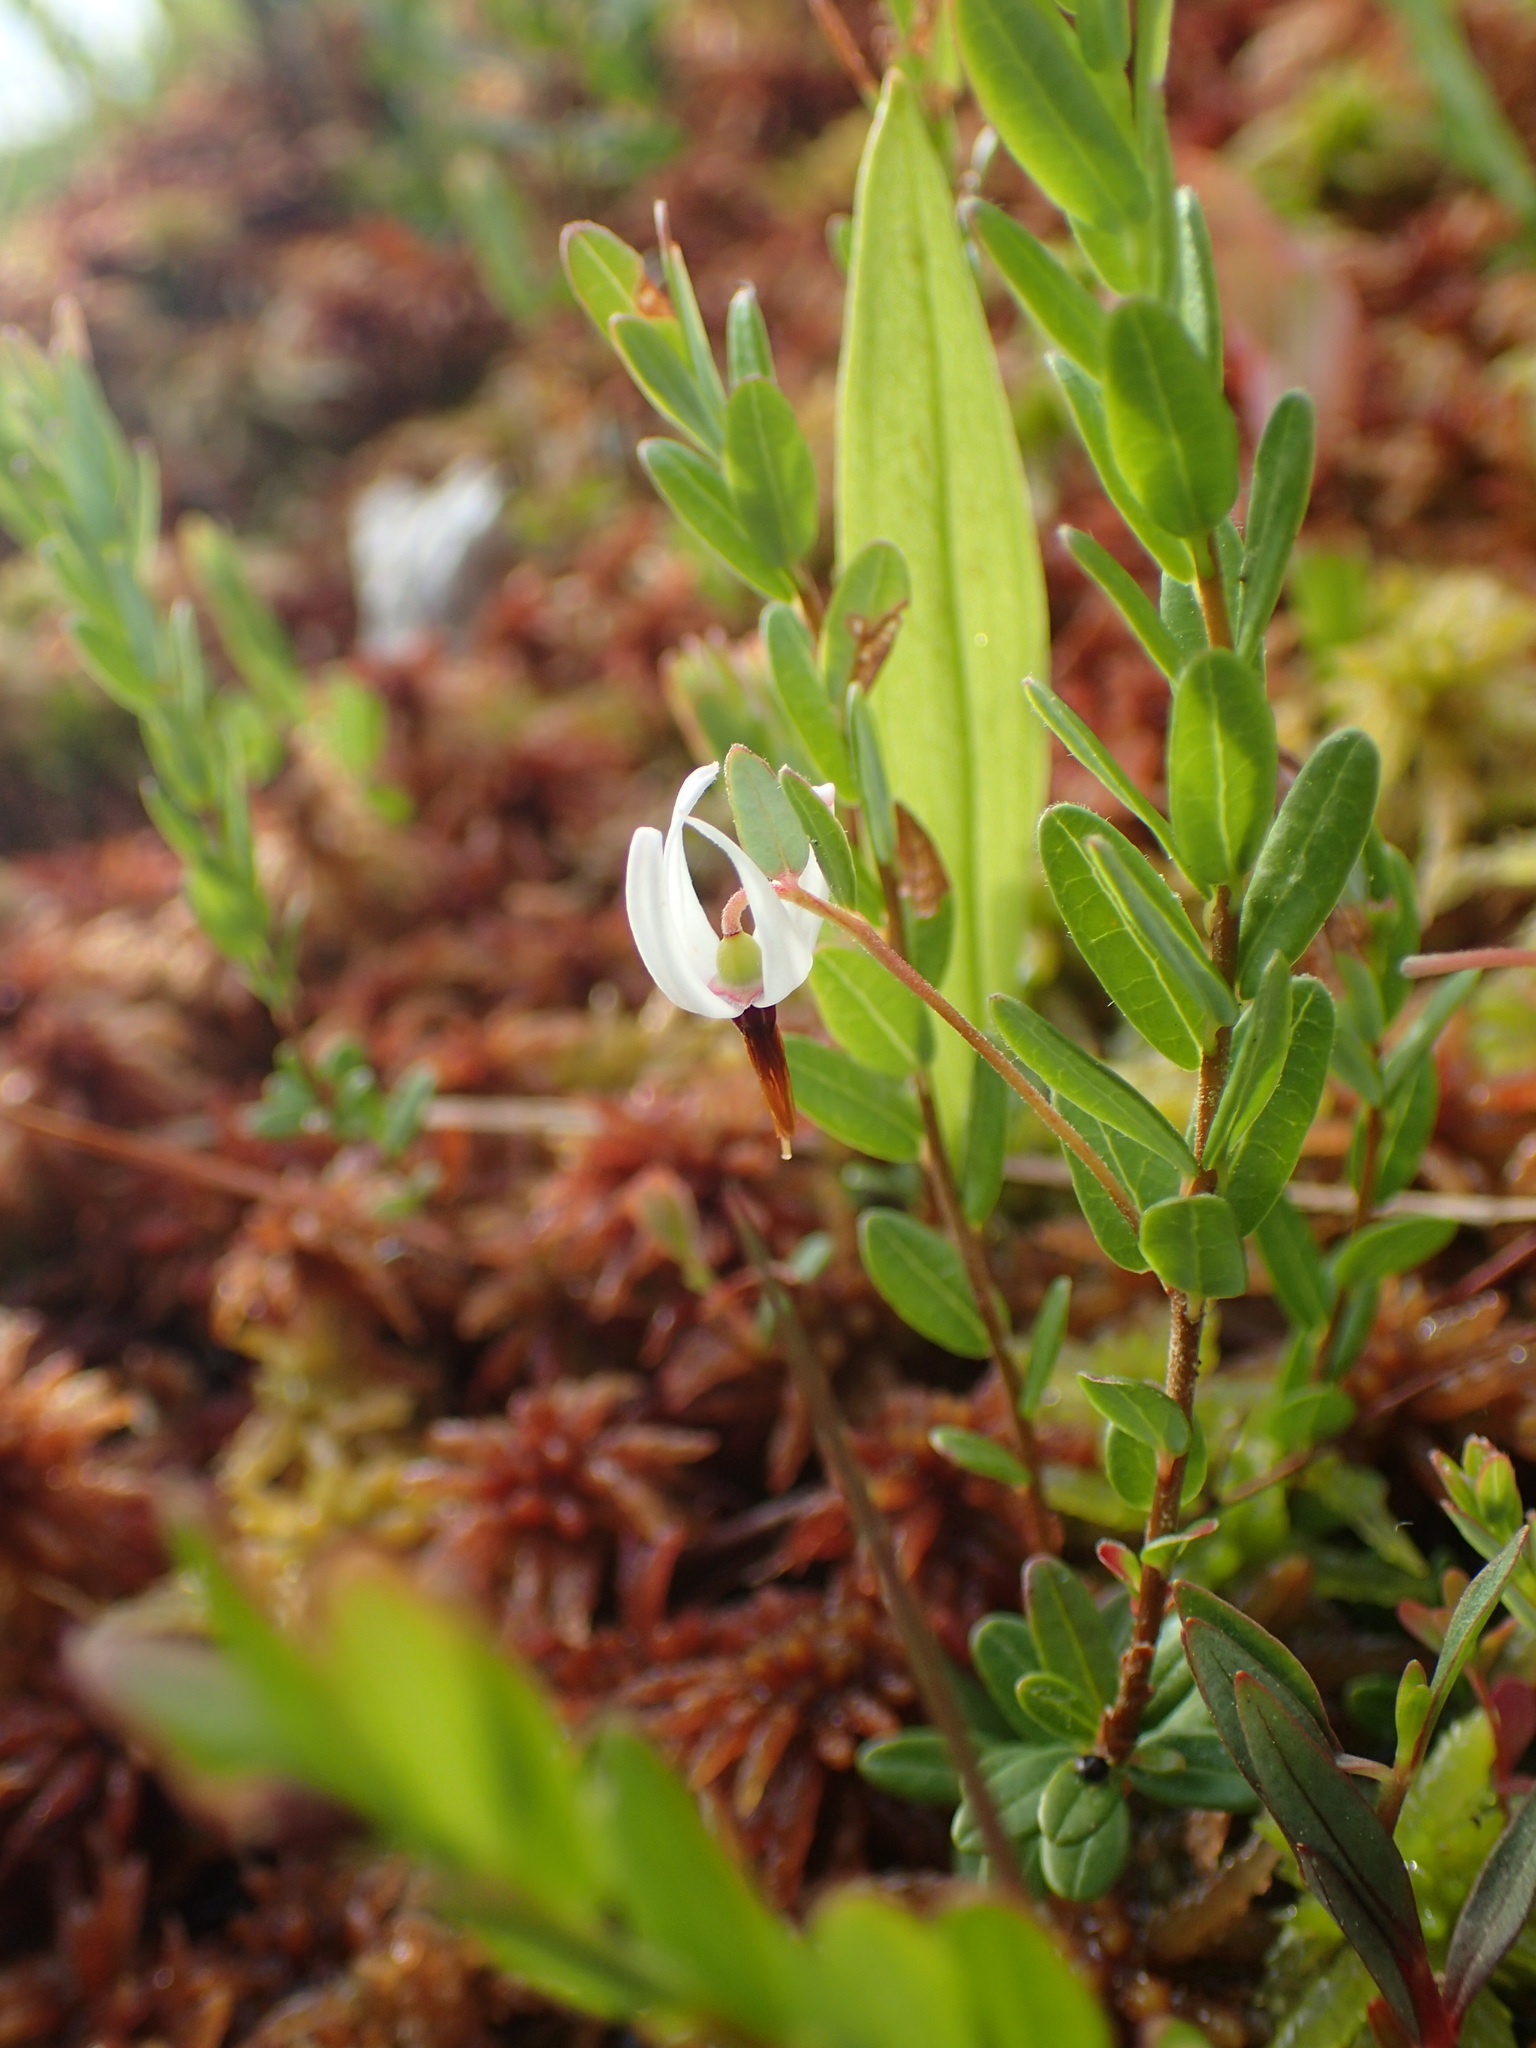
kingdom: Plantae
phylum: Tracheophyta
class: Magnoliopsida
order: Ericales
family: Ericaceae
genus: Vaccinium
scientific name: Vaccinium macrocarpon
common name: American cranberry
